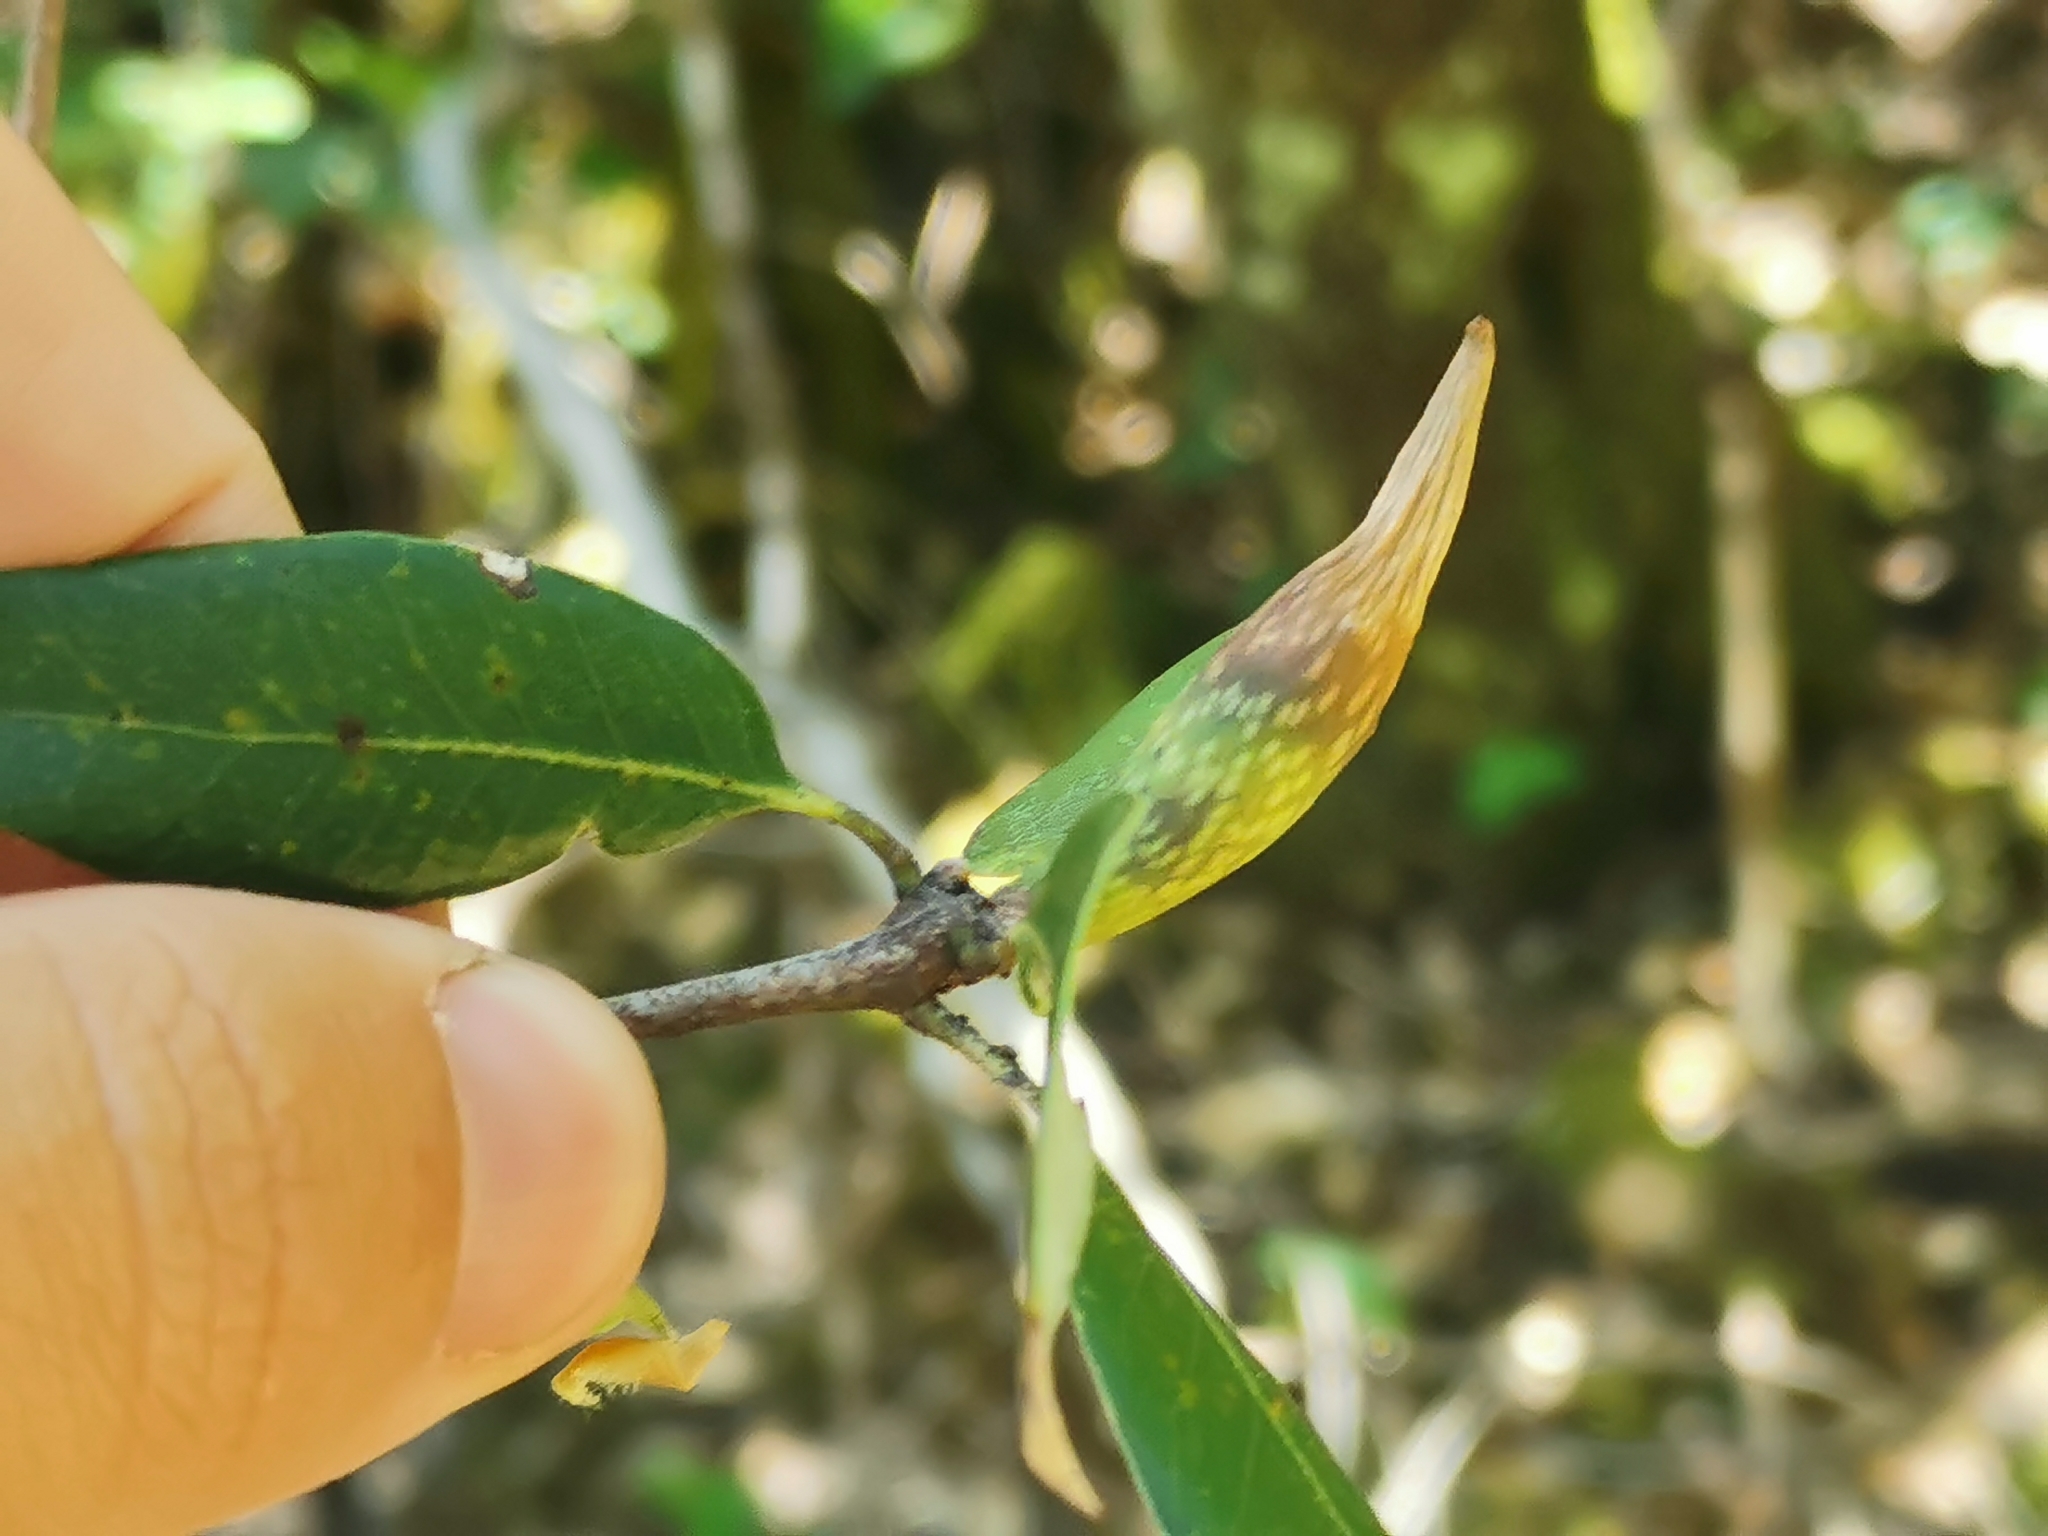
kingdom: Animalia
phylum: Arthropoda
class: Insecta
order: Hymenoptera
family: Cynipidae
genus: Heteroecus
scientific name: Heteroecus pacificus
